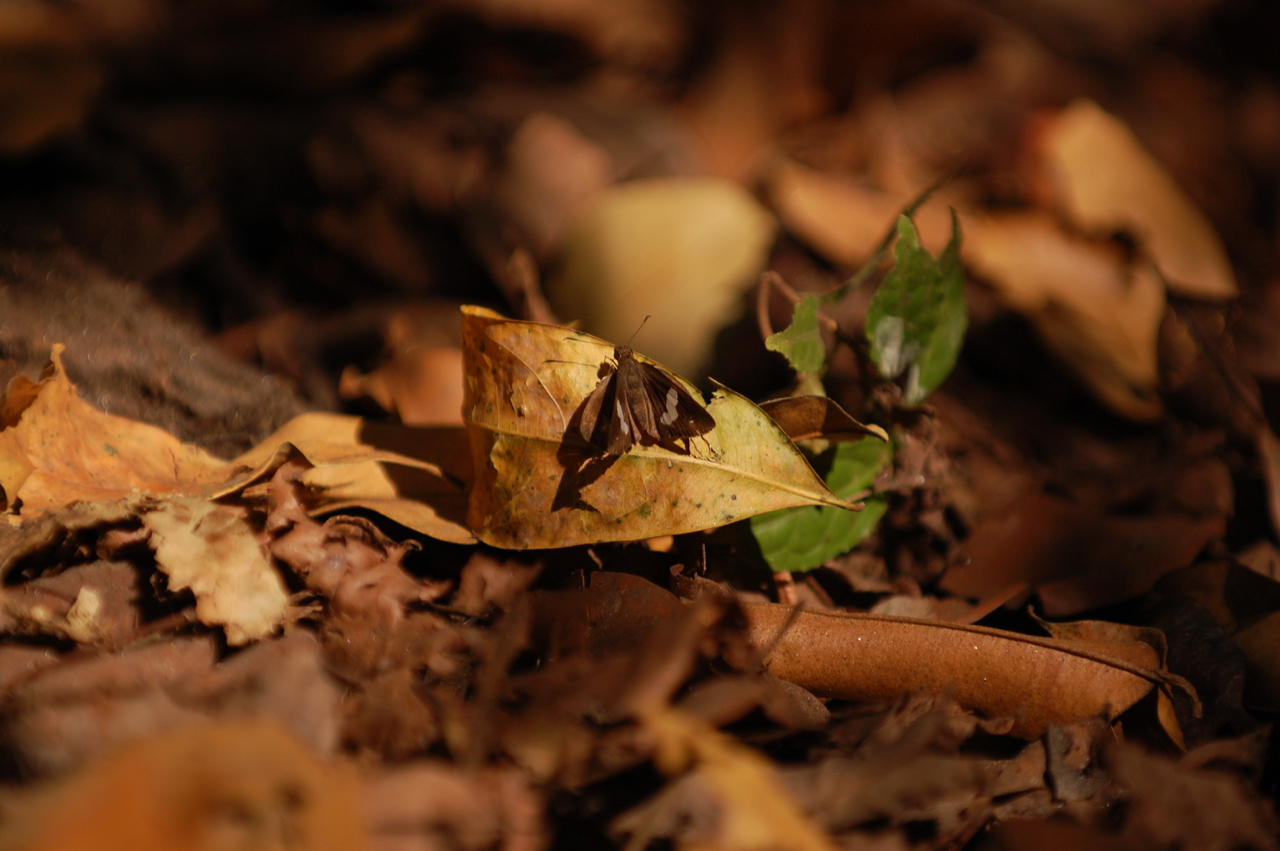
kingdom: Animalia
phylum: Arthropoda
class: Insecta
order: Lepidoptera
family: Hesperiidae
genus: Notocrypta
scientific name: Notocrypta paralysos
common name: Common banded demon
